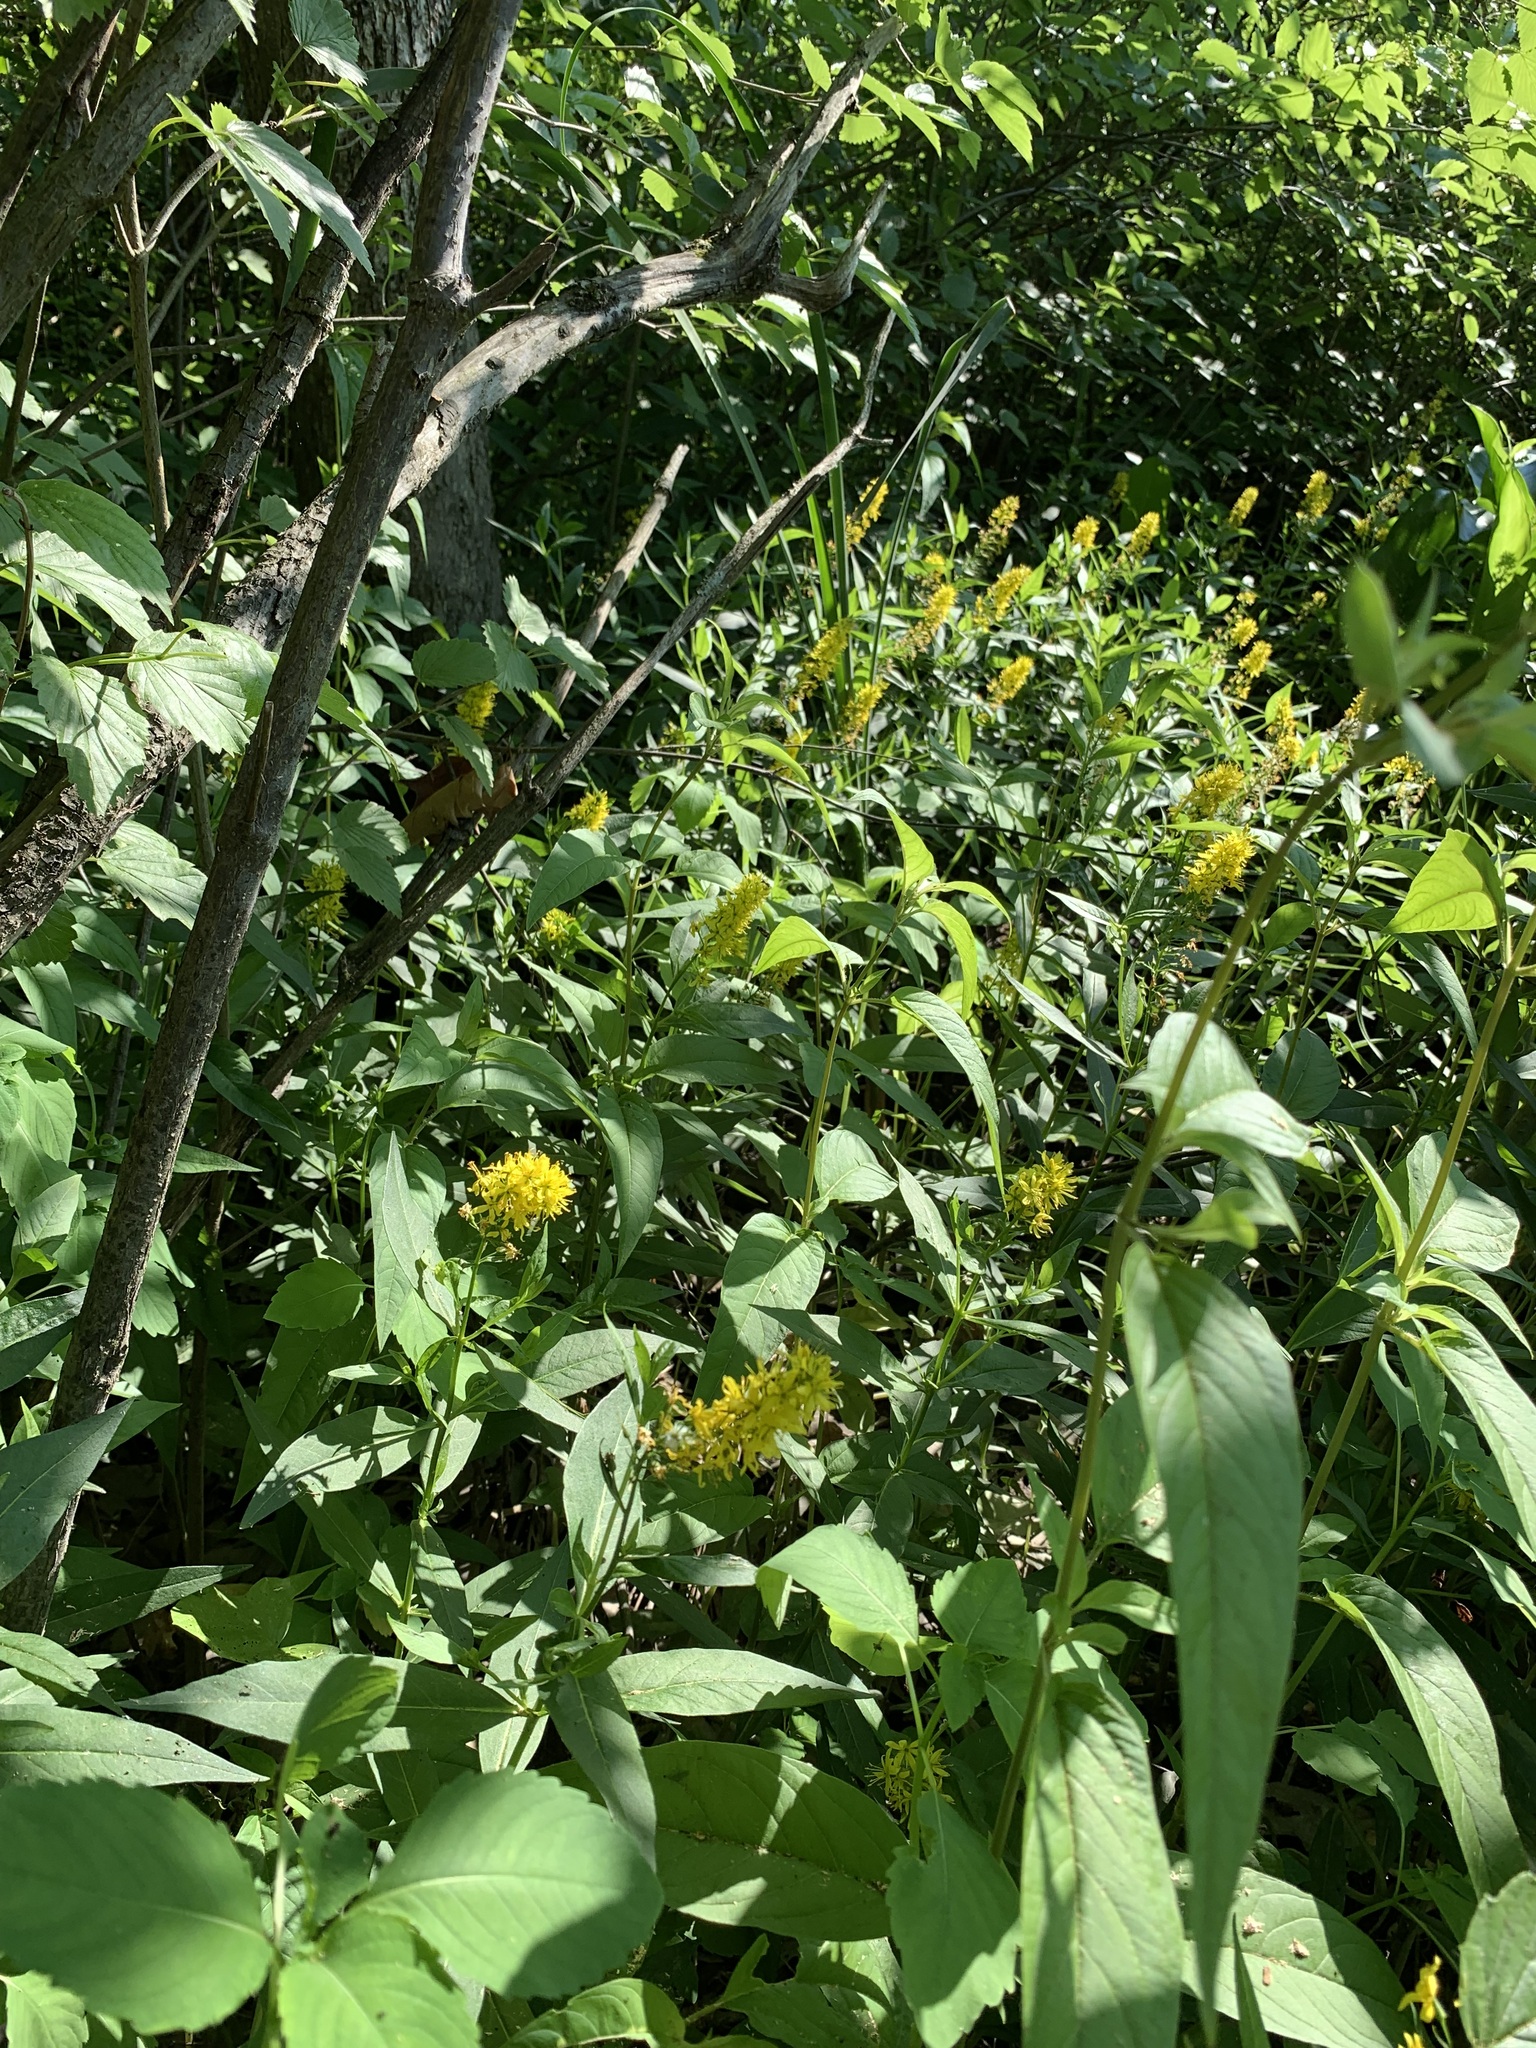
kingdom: Plantae
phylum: Tracheophyta
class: Magnoliopsida
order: Ericales
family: Primulaceae
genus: Lysimachia
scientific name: Lysimachia terrestris
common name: Lake loosestrife
